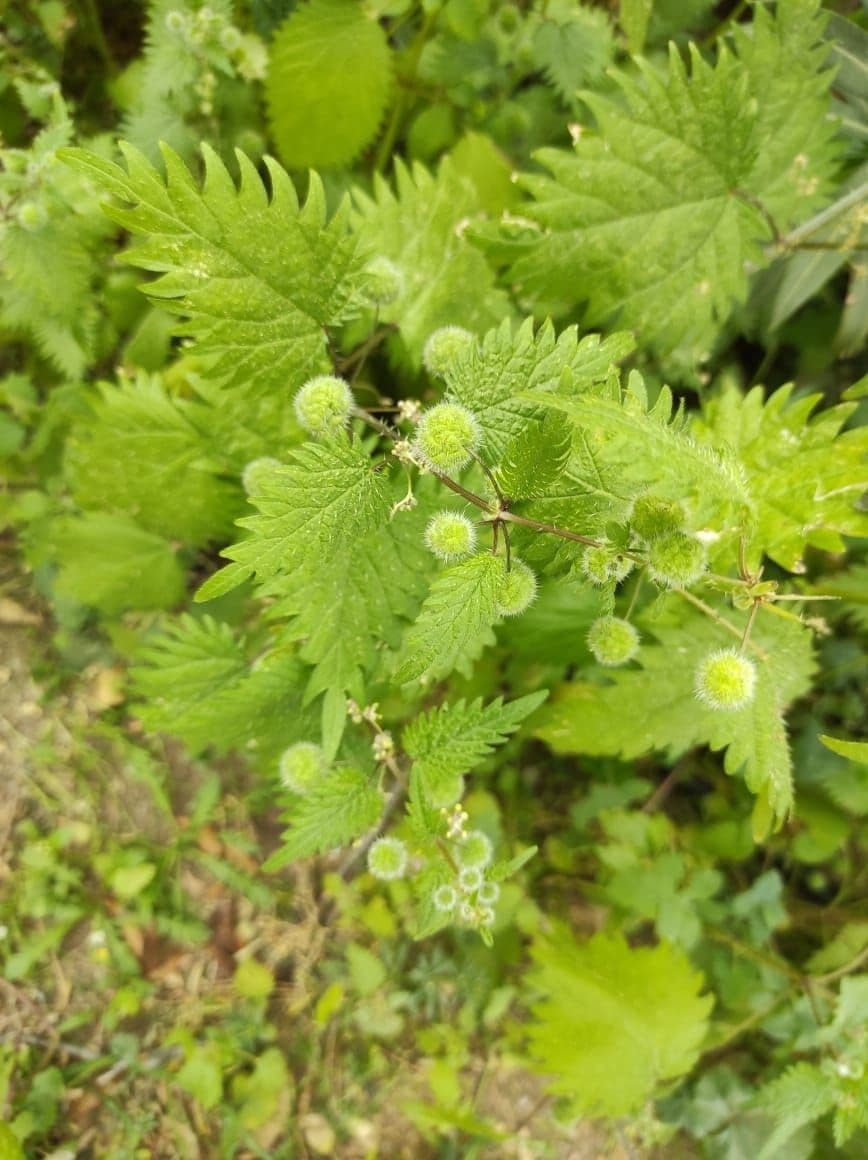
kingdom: Plantae
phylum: Tracheophyta
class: Magnoliopsida
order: Rosales
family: Urticaceae
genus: Urtica
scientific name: Urtica pilulifera
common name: Roman nettle
